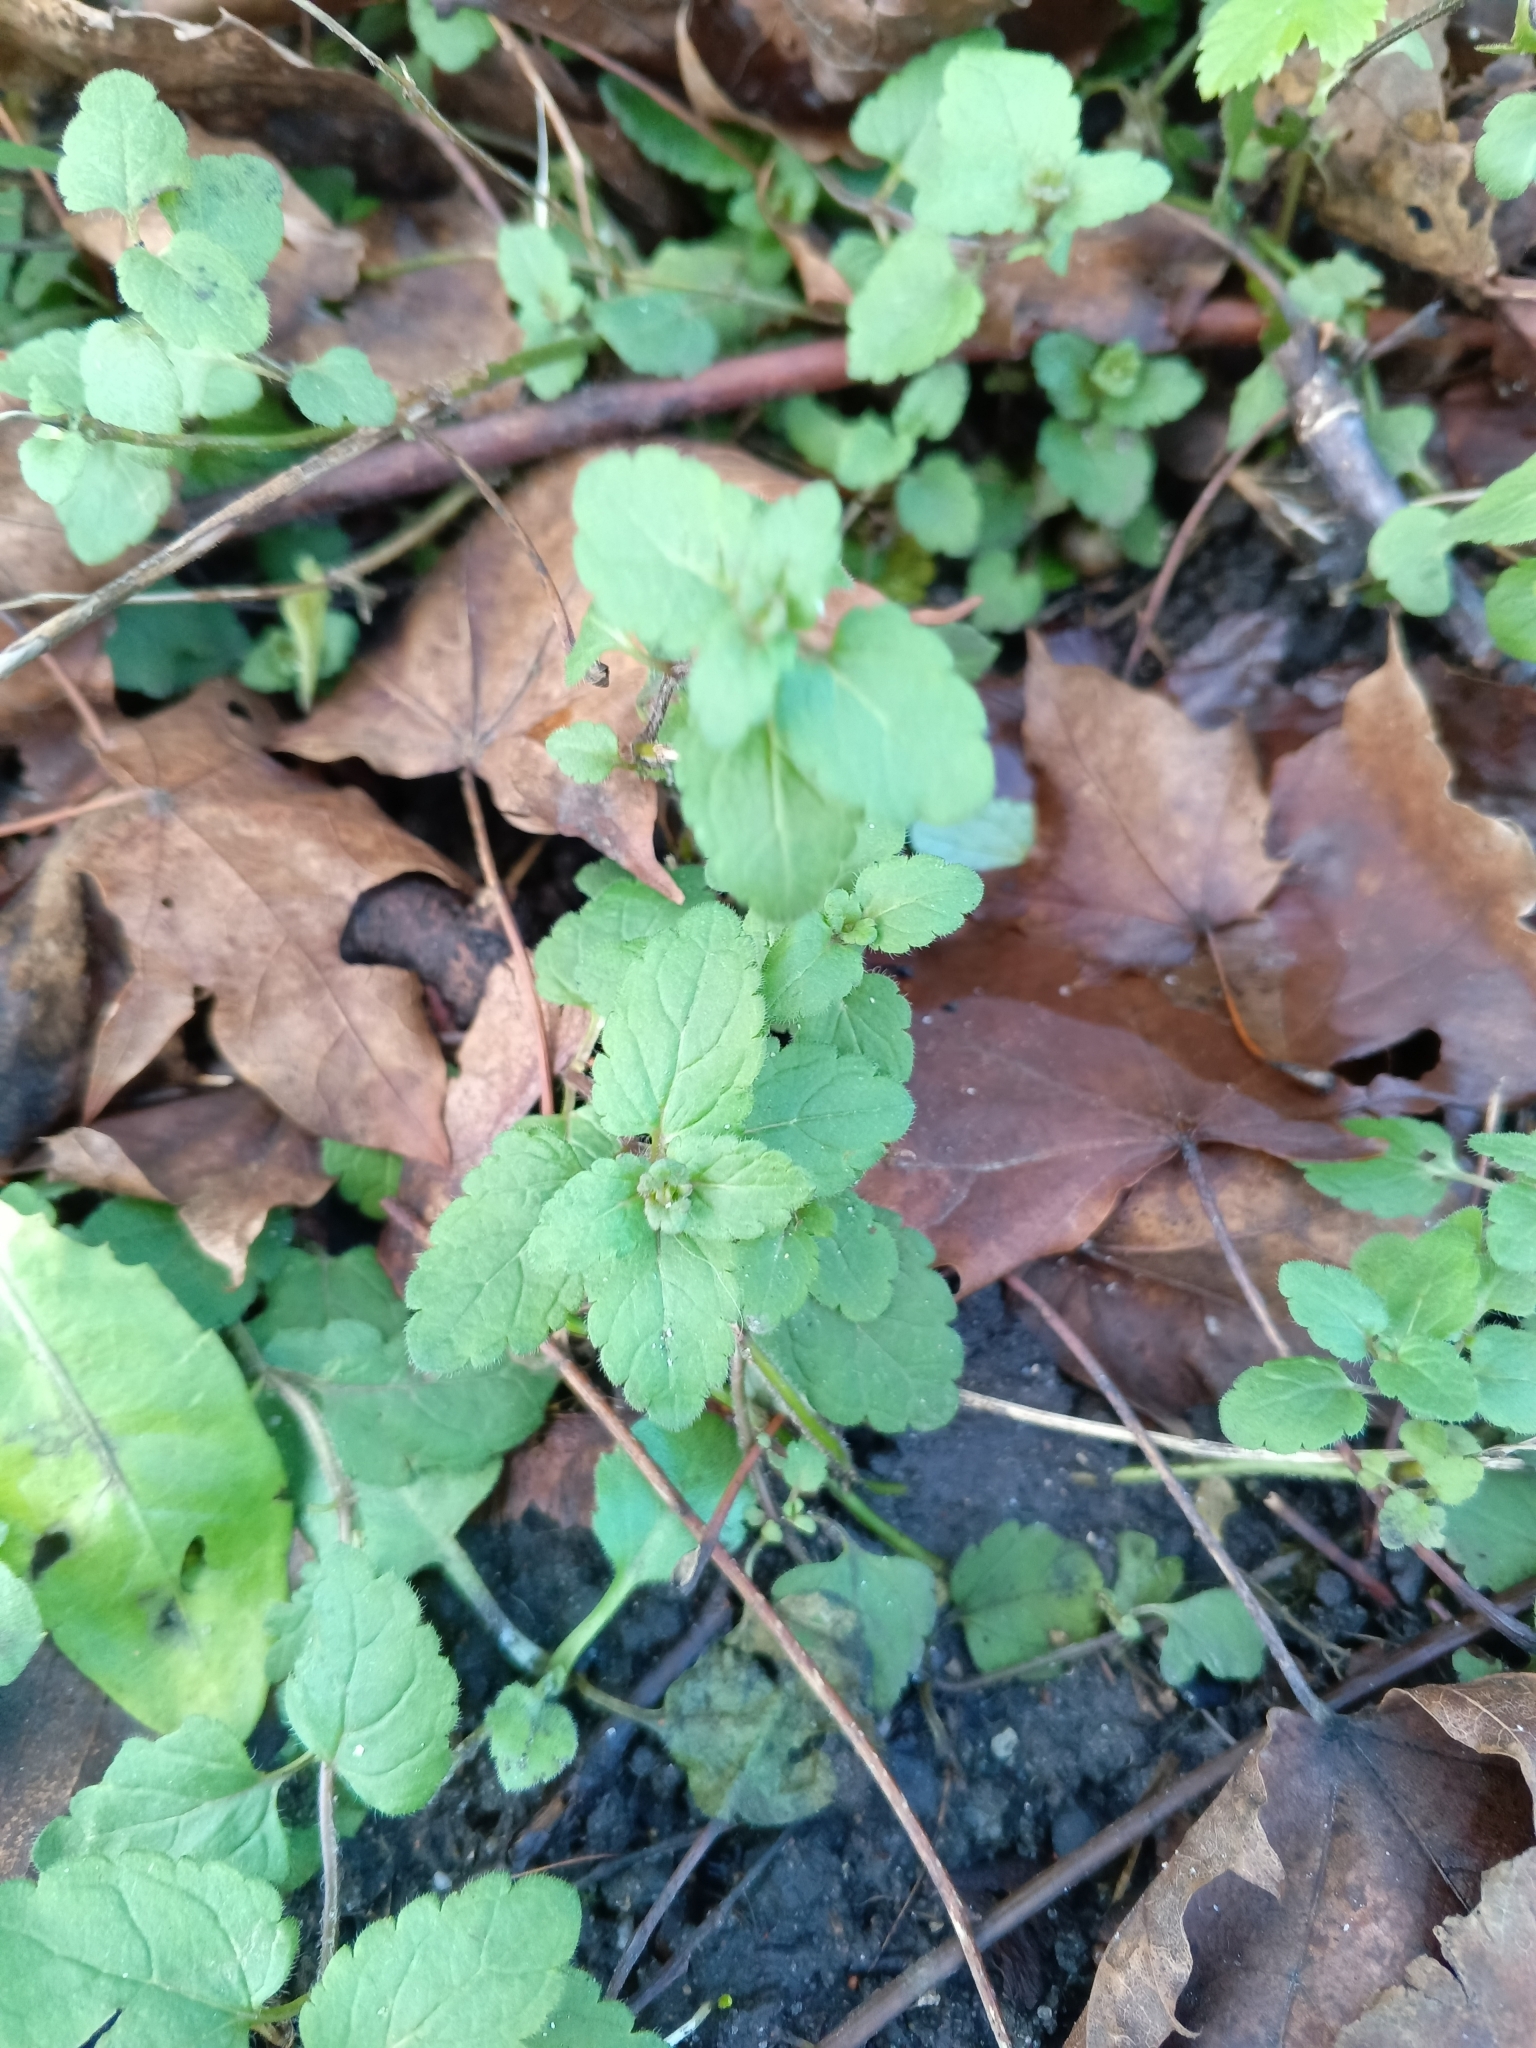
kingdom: Plantae
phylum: Tracheophyta
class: Magnoliopsida
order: Lamiales
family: Plantaginaceae
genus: Veronica
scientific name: Veronica chamaedrys
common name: Germander speedwell
